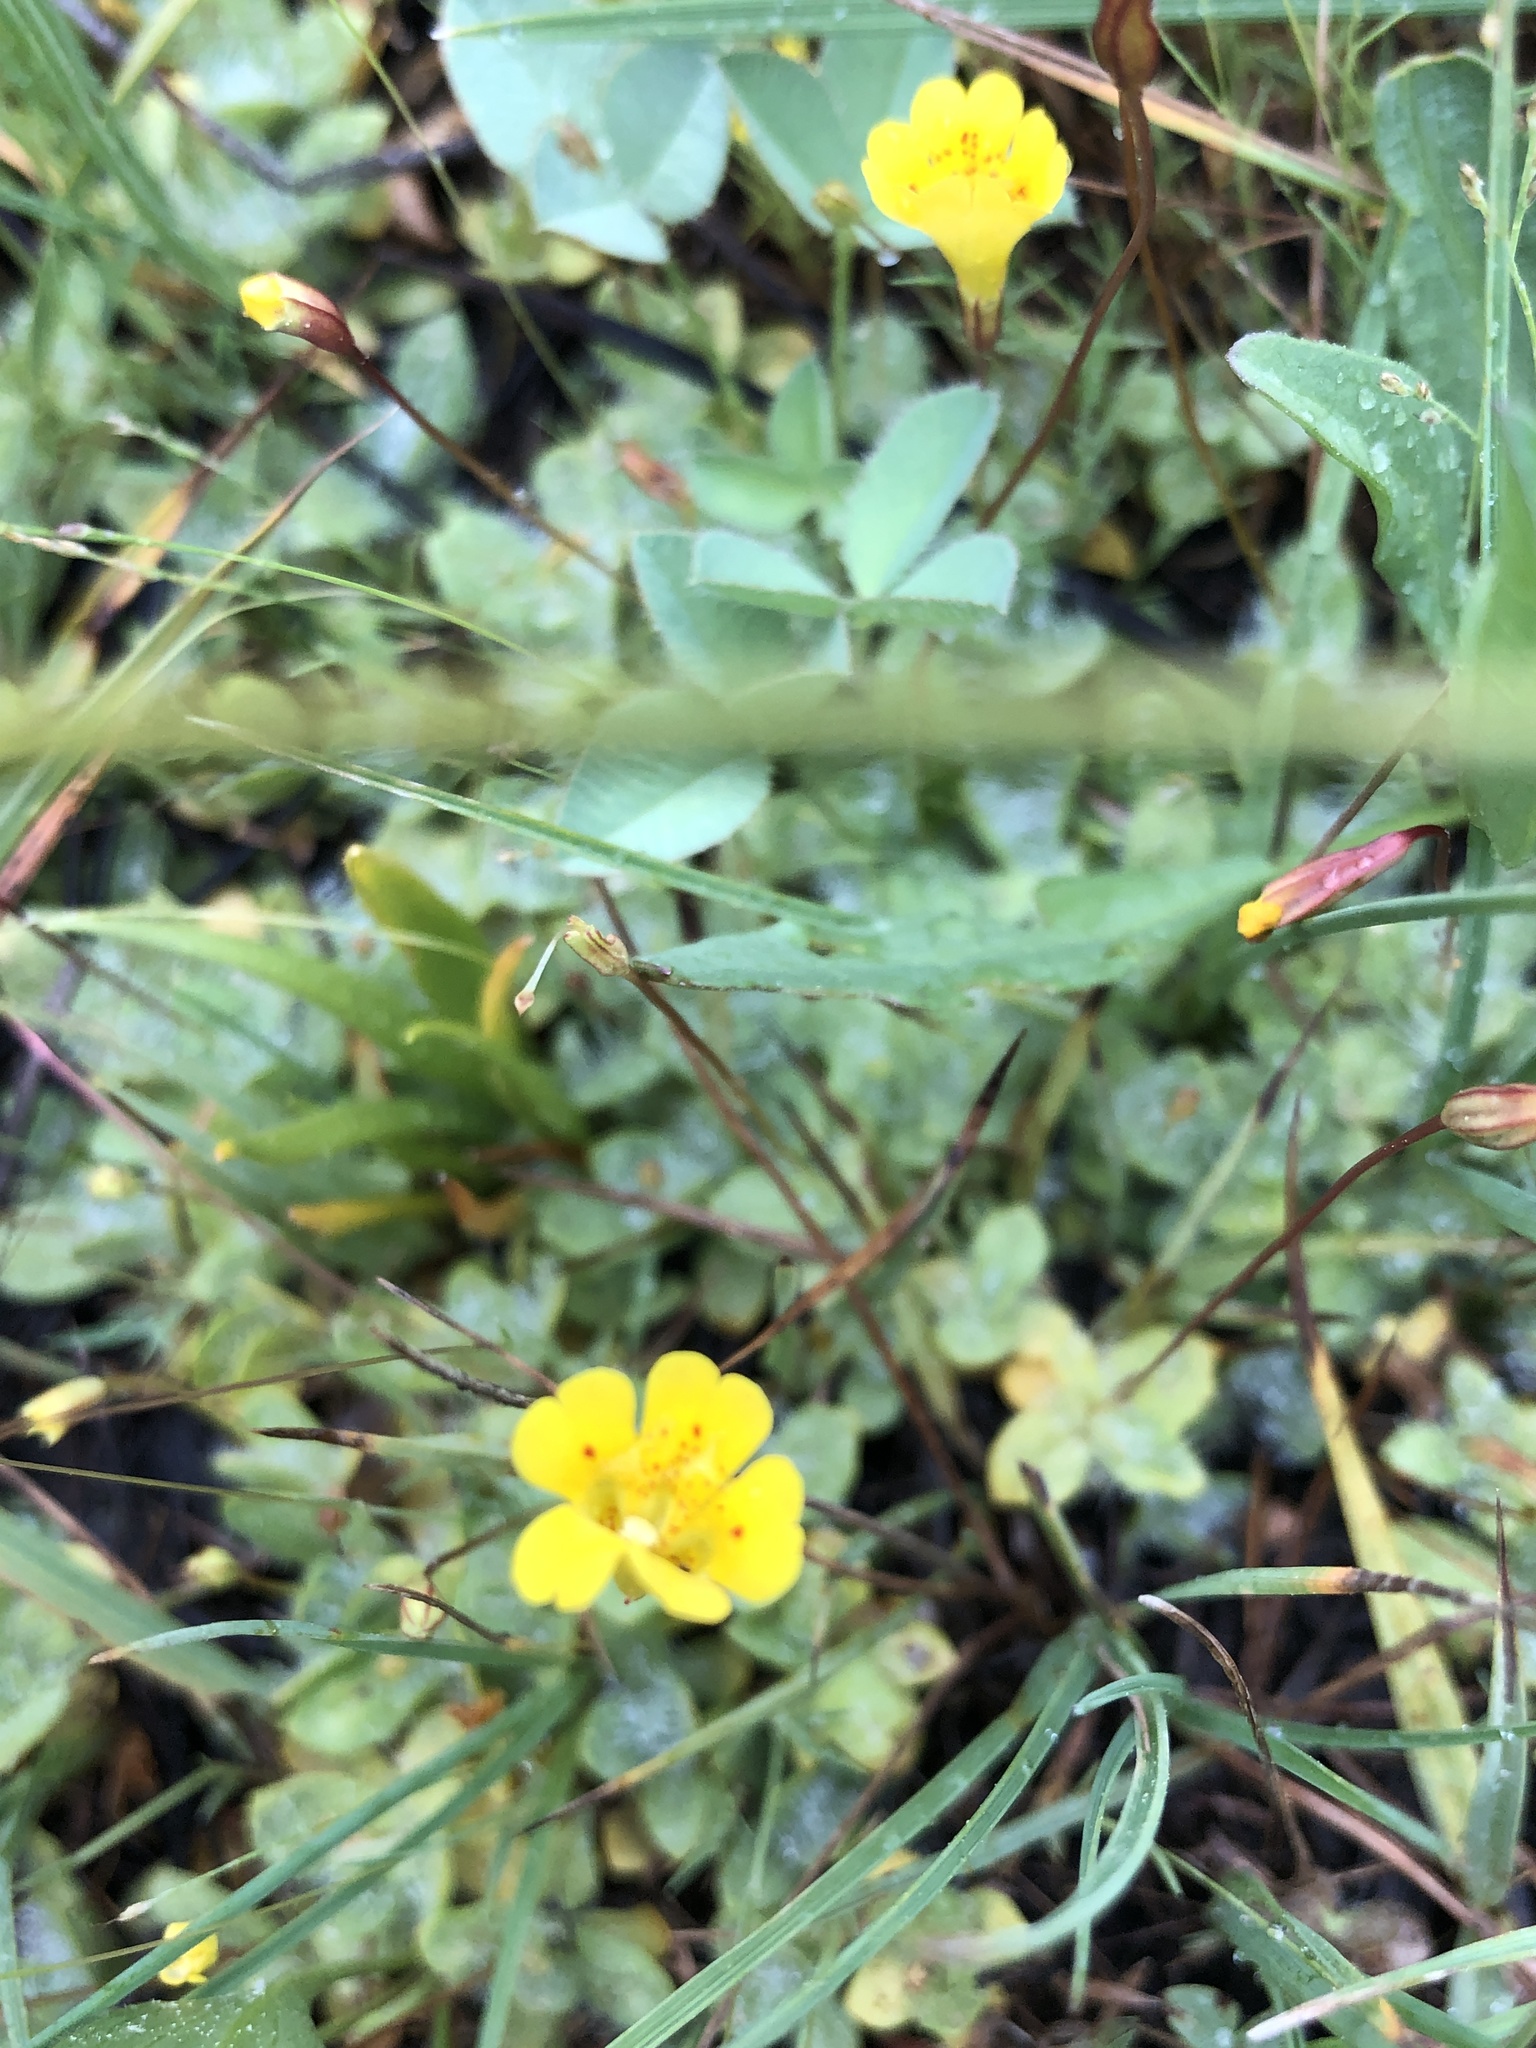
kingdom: Plantae
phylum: Tracheophyta
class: Magnoliopsida
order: Lamiales
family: Phrymaceae
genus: Erythranthe
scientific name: Erythranthe primuloides
